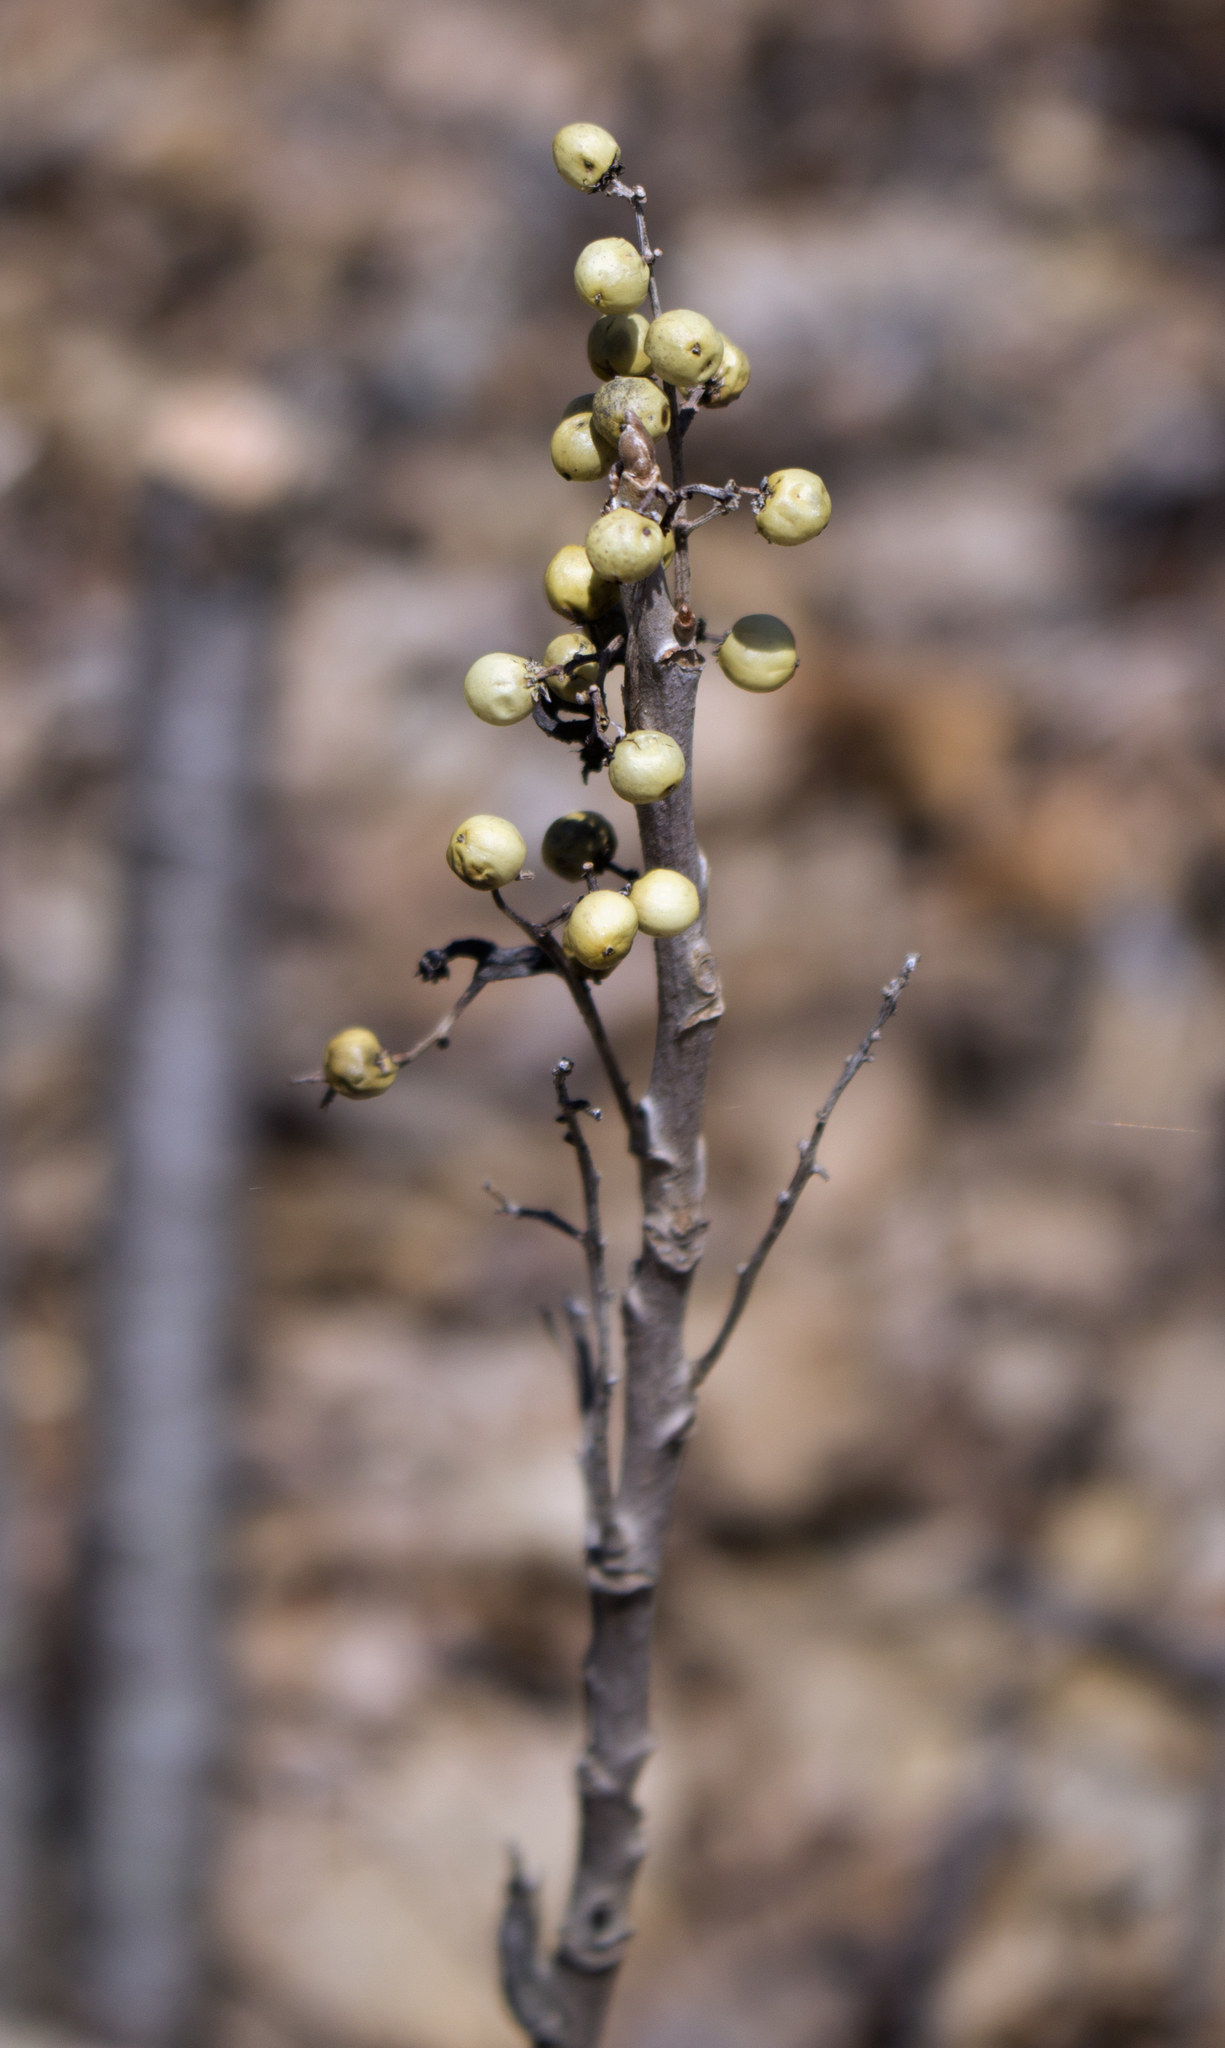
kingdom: Plantae
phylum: Tracheophyta
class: Magnoliopsida
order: Sapindales
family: Anacardiaceae
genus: Toxicodendron
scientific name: Toxicodendron rydbergii
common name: Rydberg's poison-ivy
